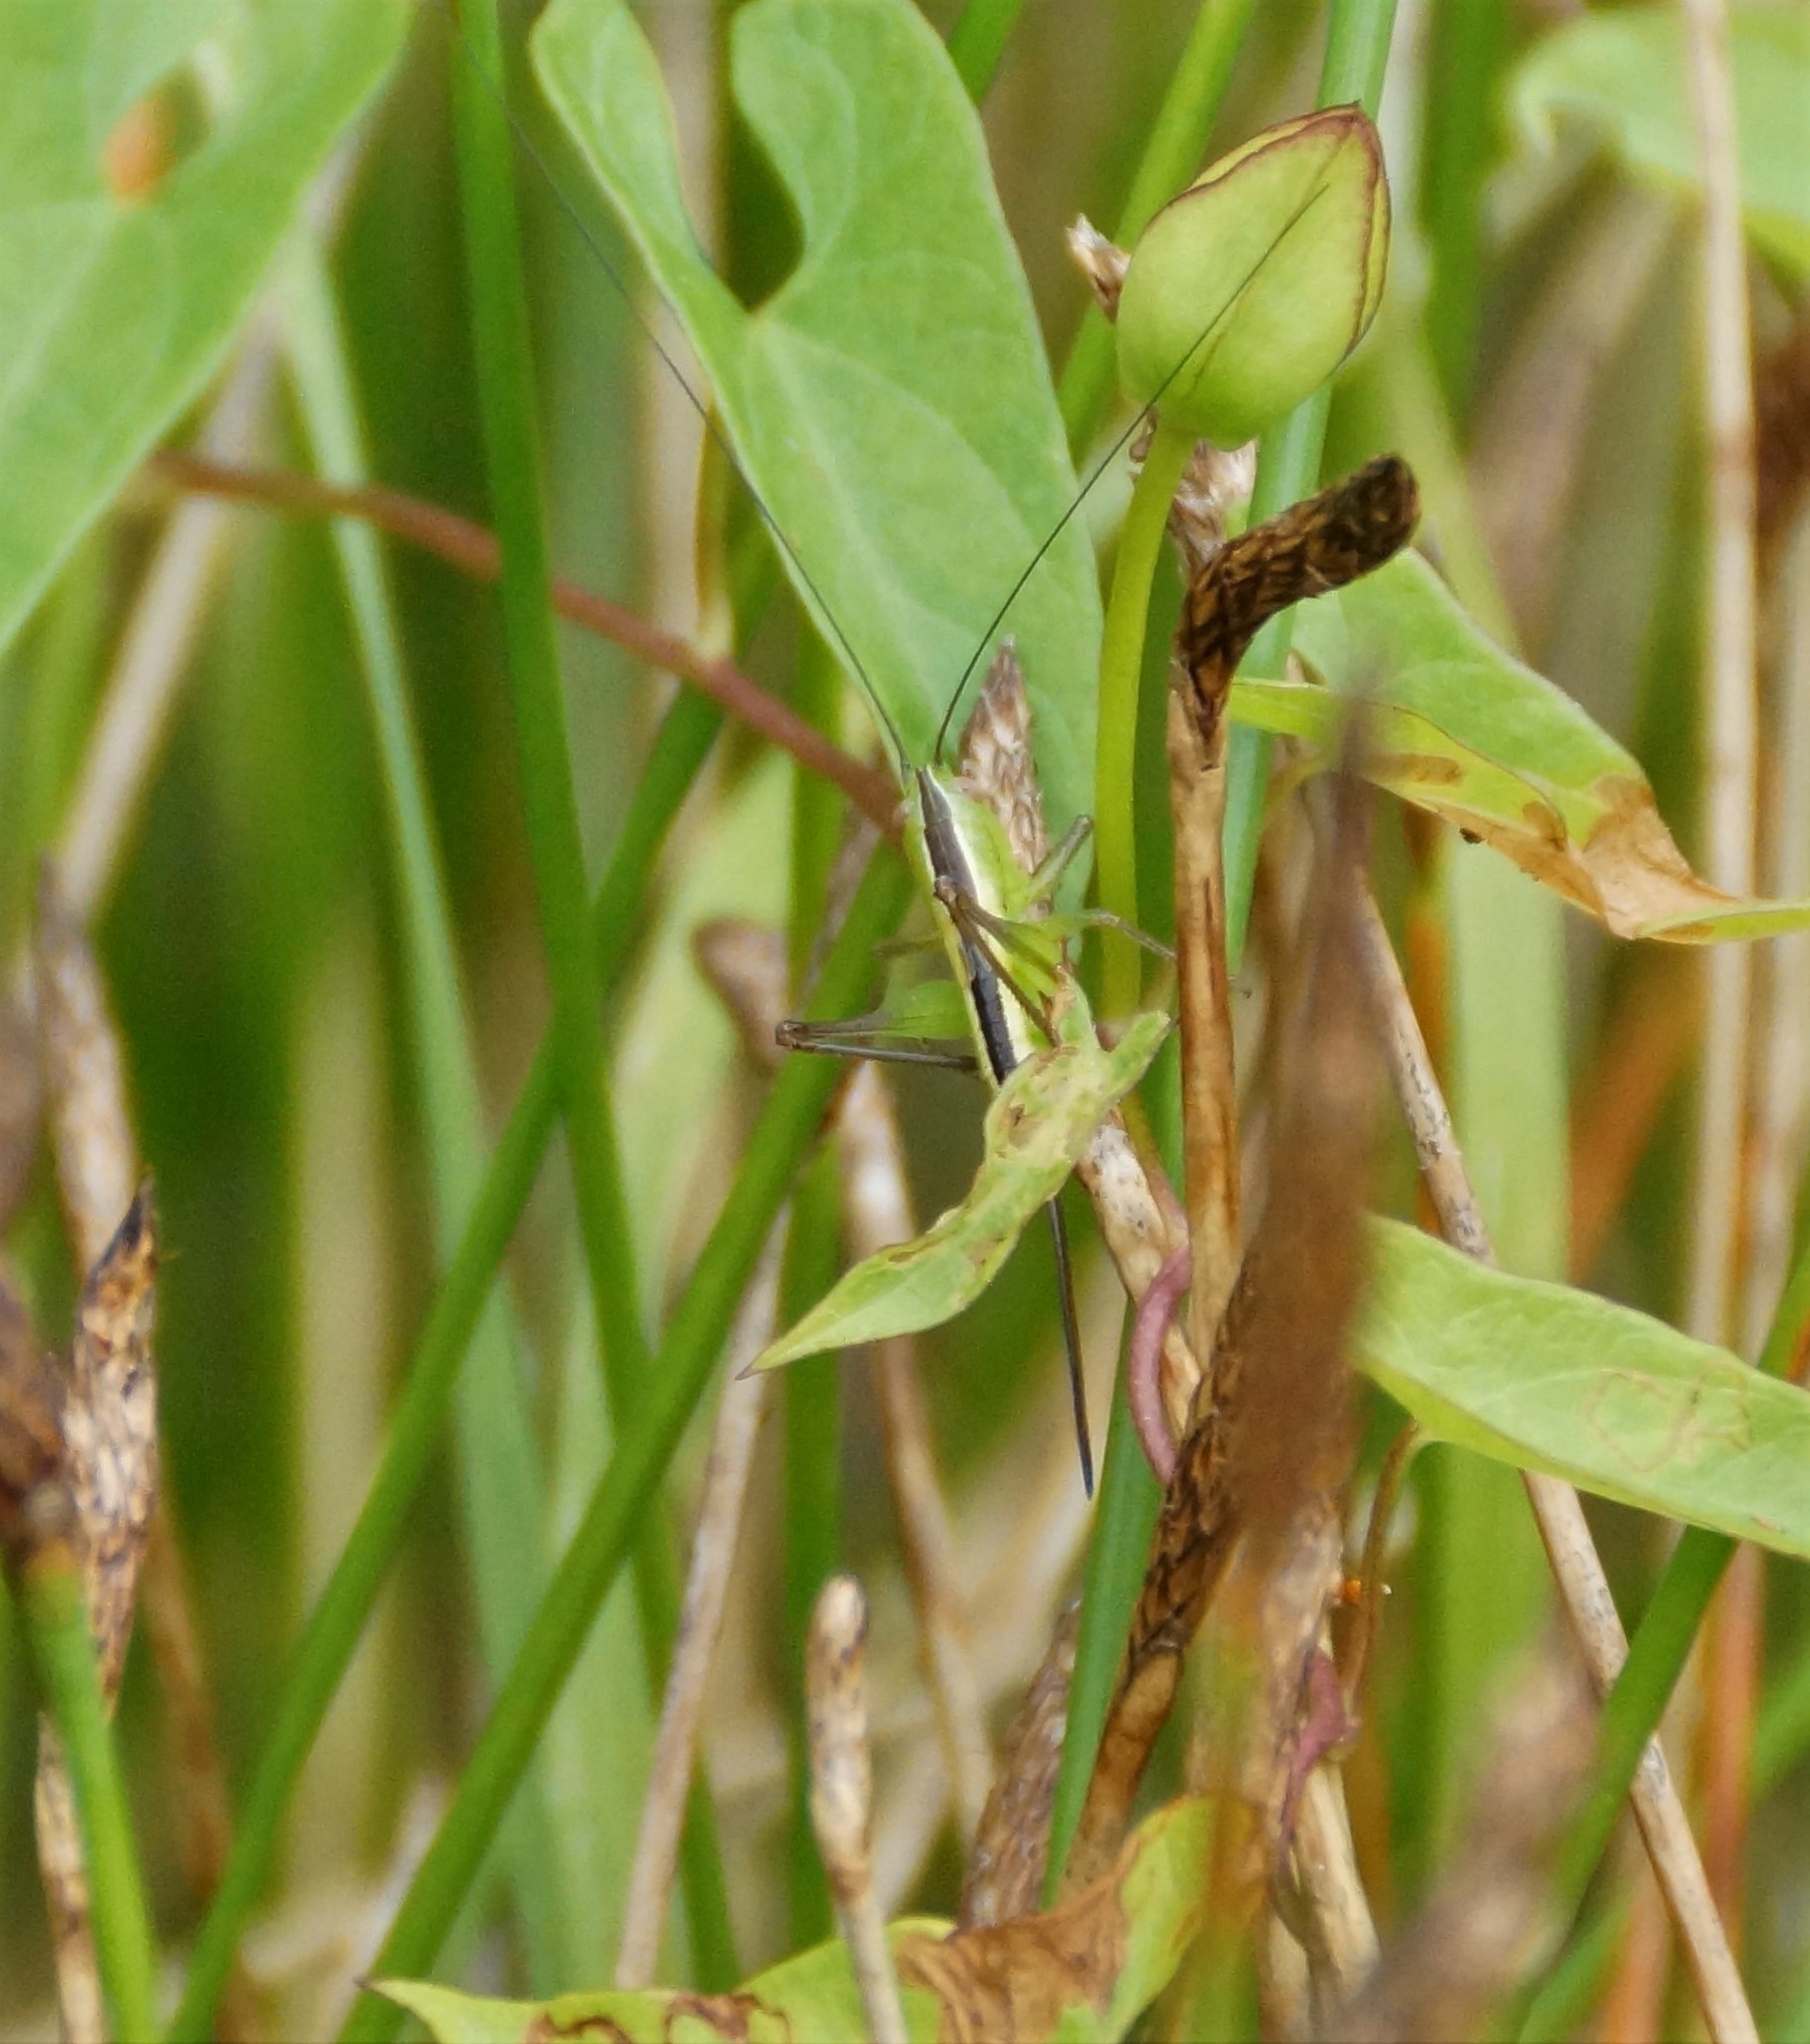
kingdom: Animalia
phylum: Arthropoda
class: Insecta
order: Orthoptera
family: Tettigoniidae
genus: Conocephalus
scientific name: Conocephalus albescens
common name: Whitish meadow katydid
